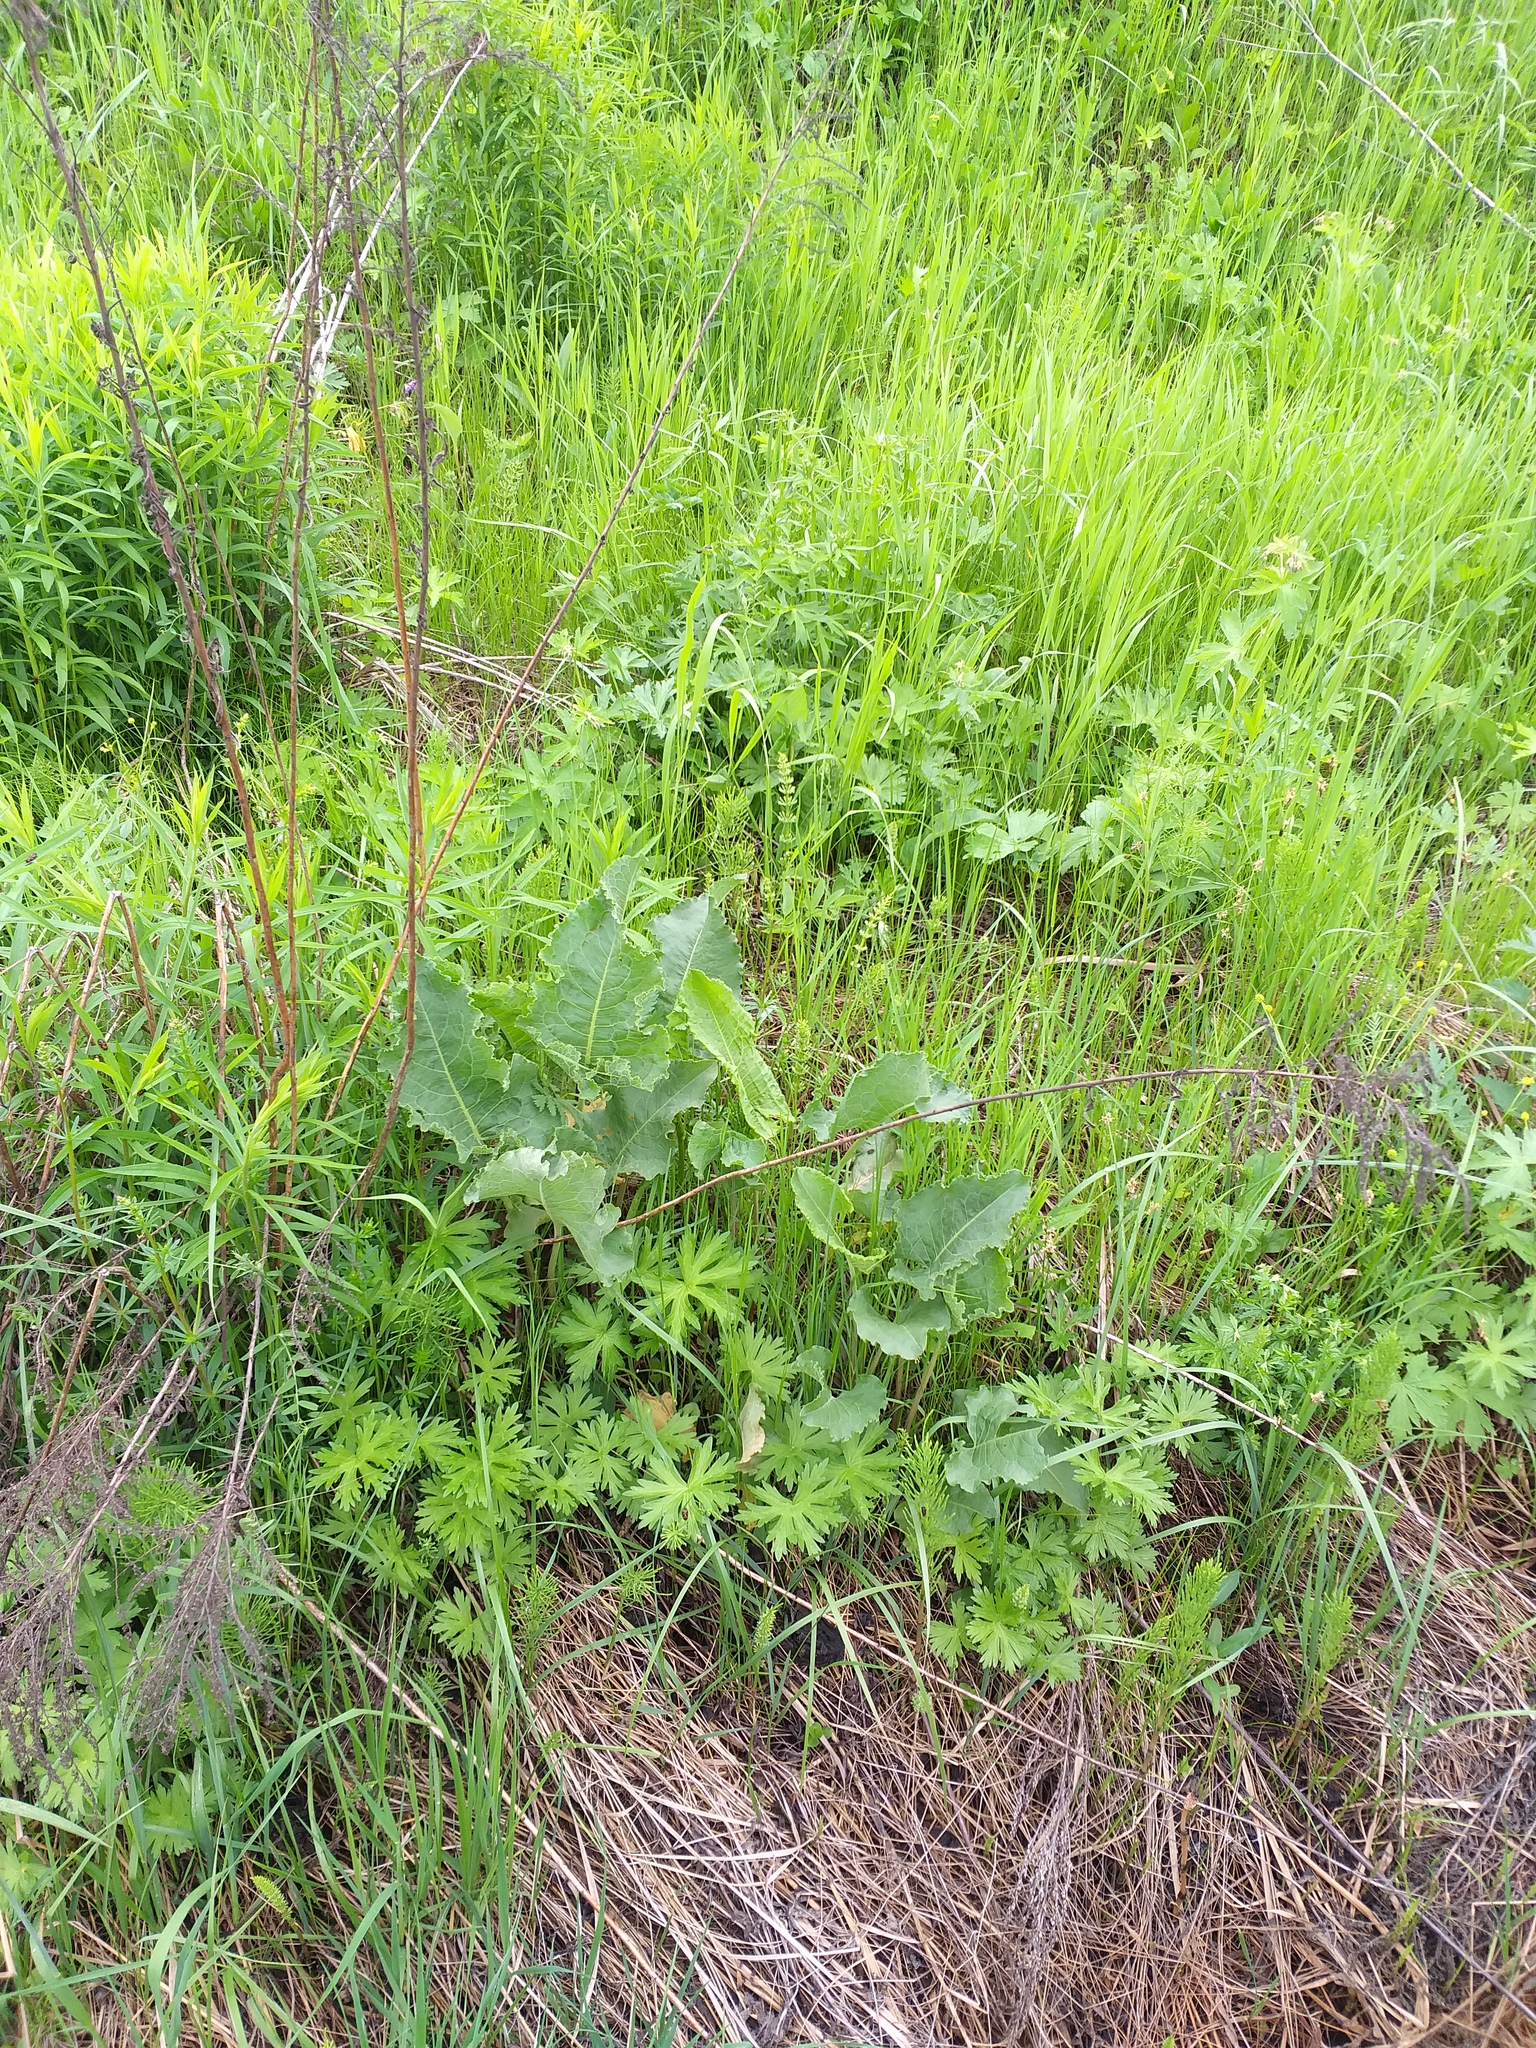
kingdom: Plantae
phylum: Tracheophyta
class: Magnoliopsida
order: Caryophyllales
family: Polygonaceae
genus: Rumex
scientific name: Rumex confertus
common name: Russian dock
